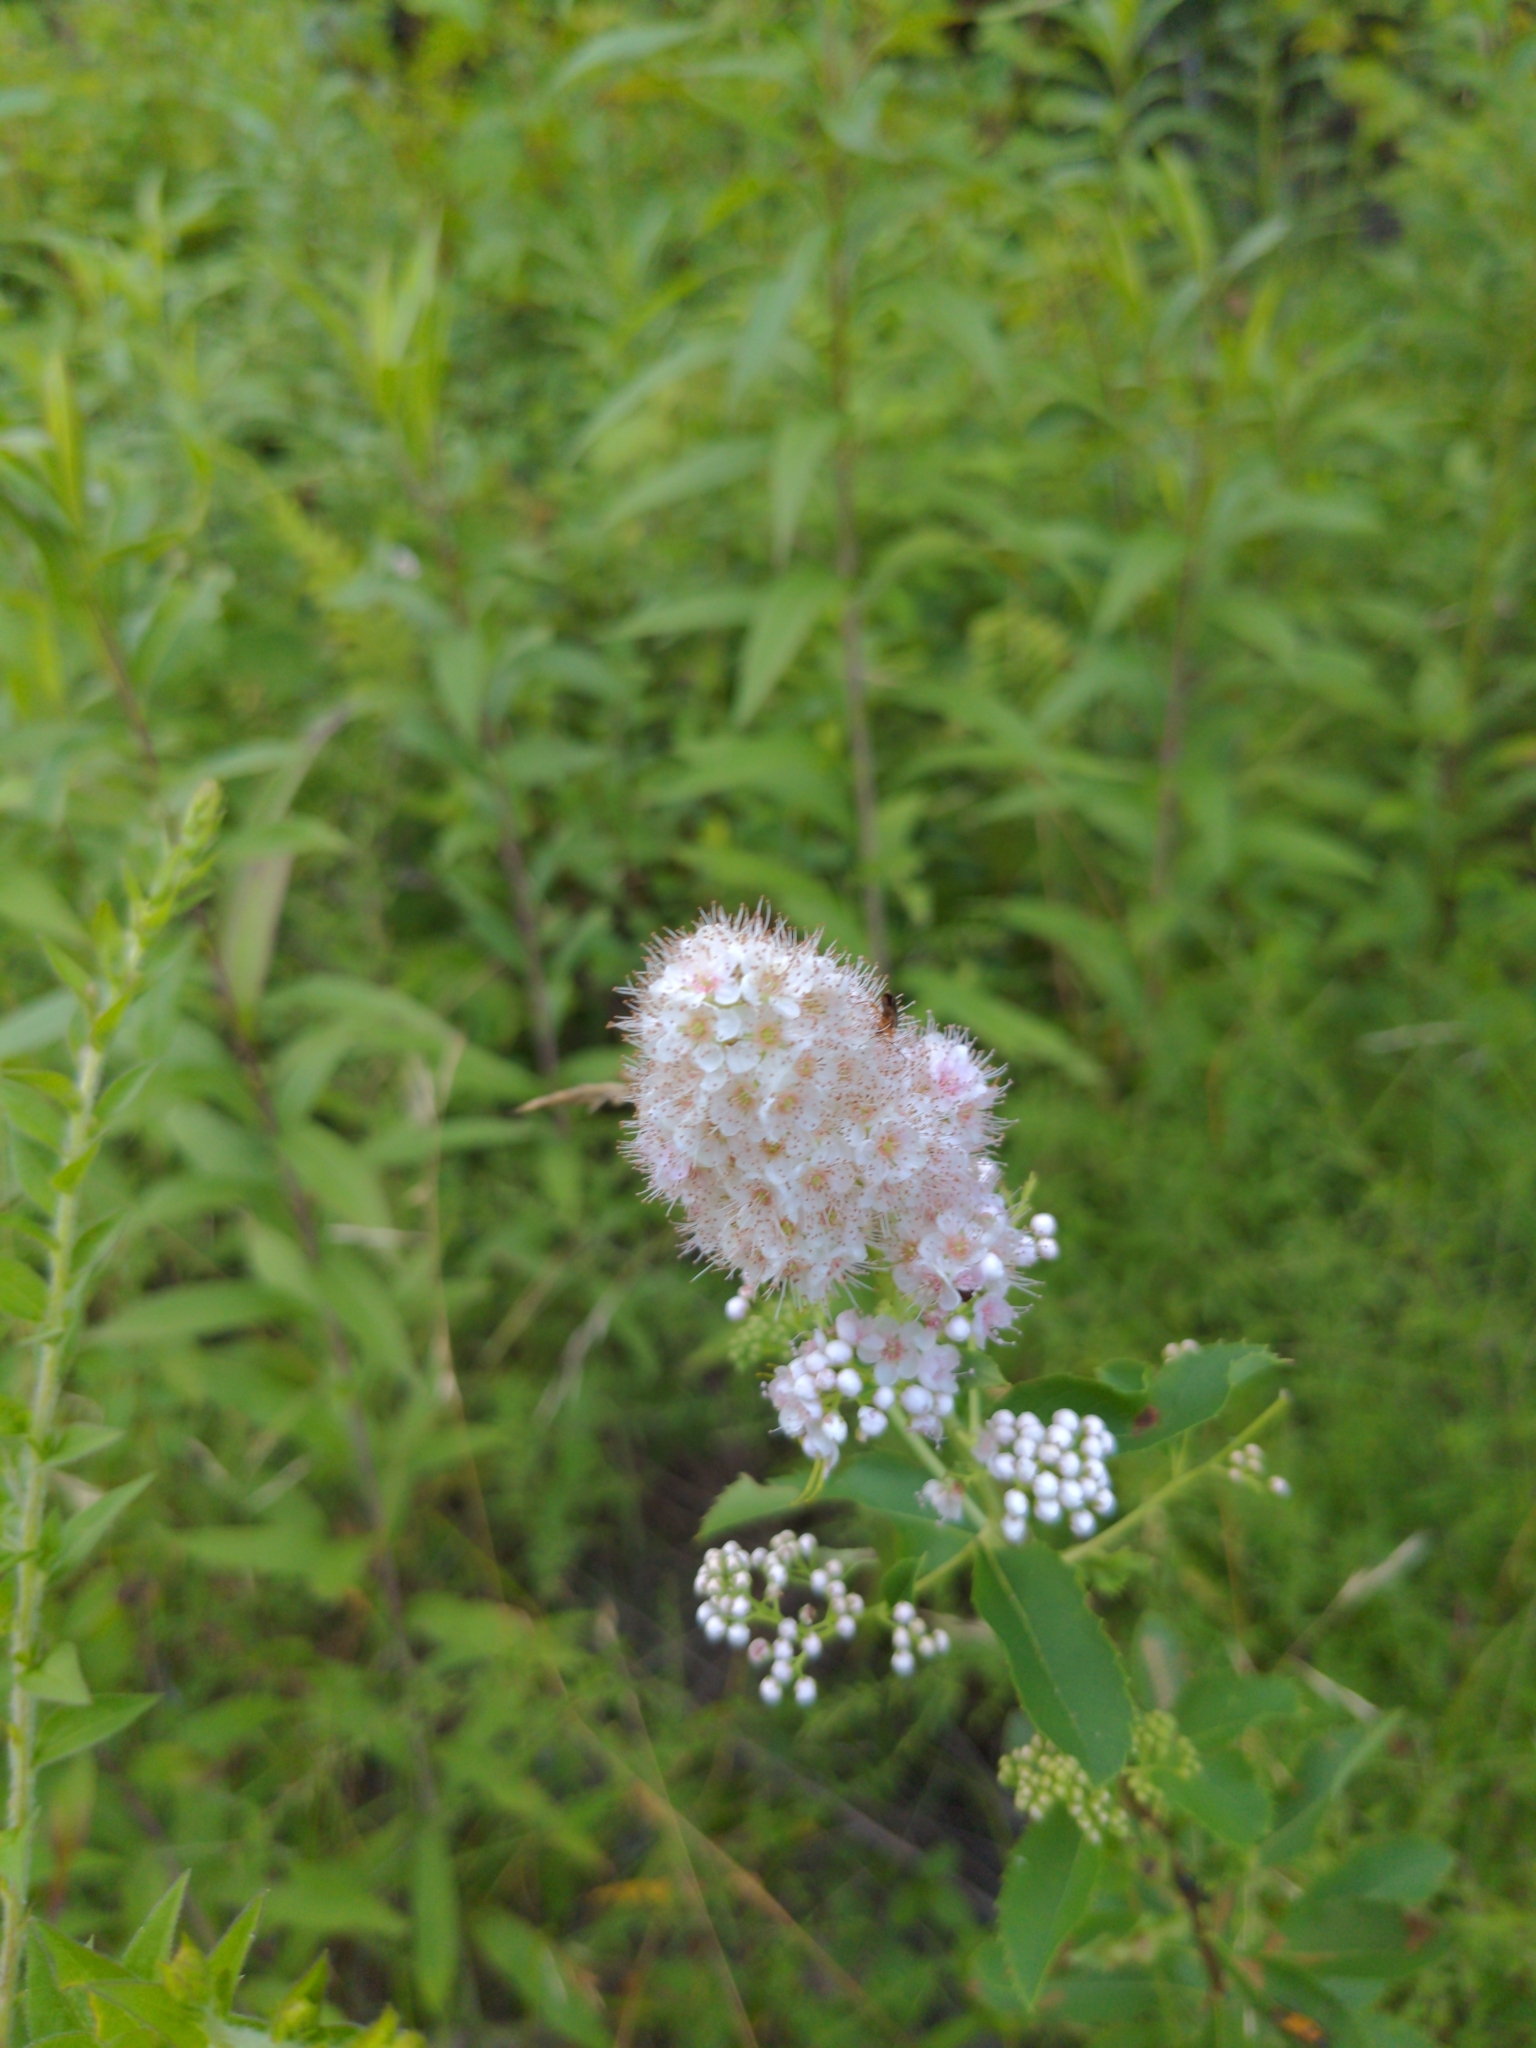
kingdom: Plantae
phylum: Tracheophyta
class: Magnoliopsida
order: Rosales
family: Rosaceae
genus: Spiraea
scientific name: Spiraea alba
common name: Pale bridewort
